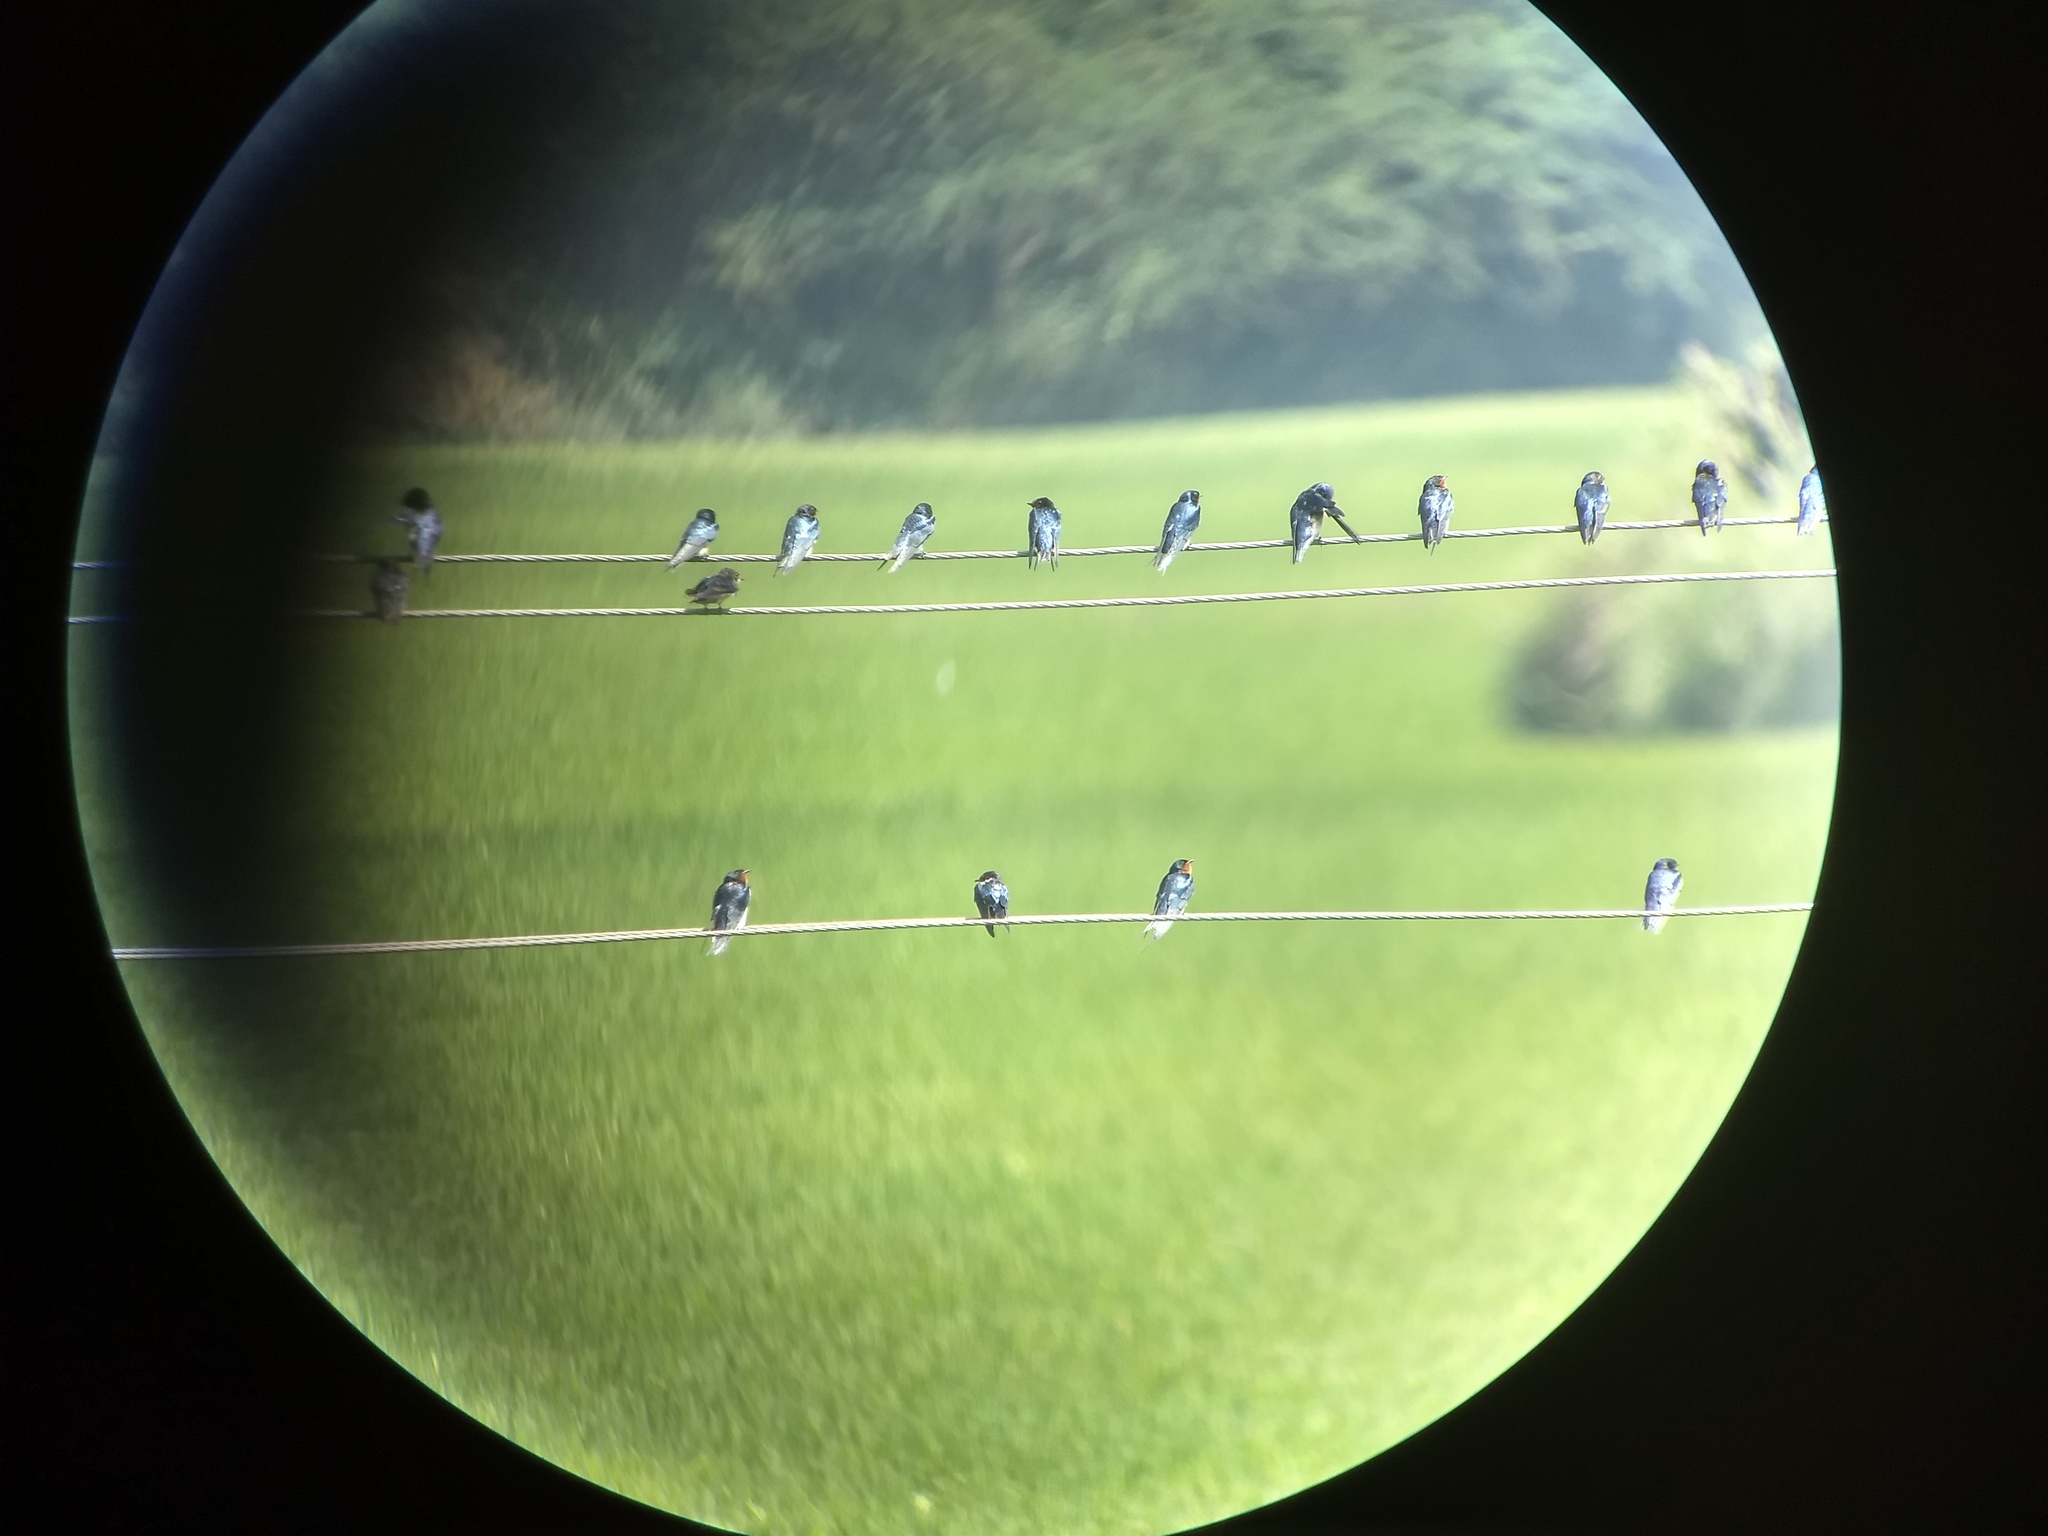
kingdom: Animalia
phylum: Chordata
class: Aves
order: Passeriformes
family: Hirundinidae
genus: Hirundo
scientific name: Hirundo rustica
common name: Barn swallow
